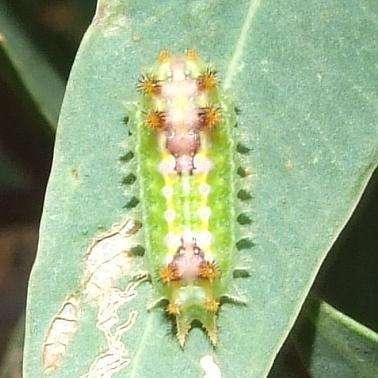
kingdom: Animalia
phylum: Arthropoda
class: Insecta
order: Lepidoptera
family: Limacodidae
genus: Doratifera
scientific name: Doratifera pinguis
